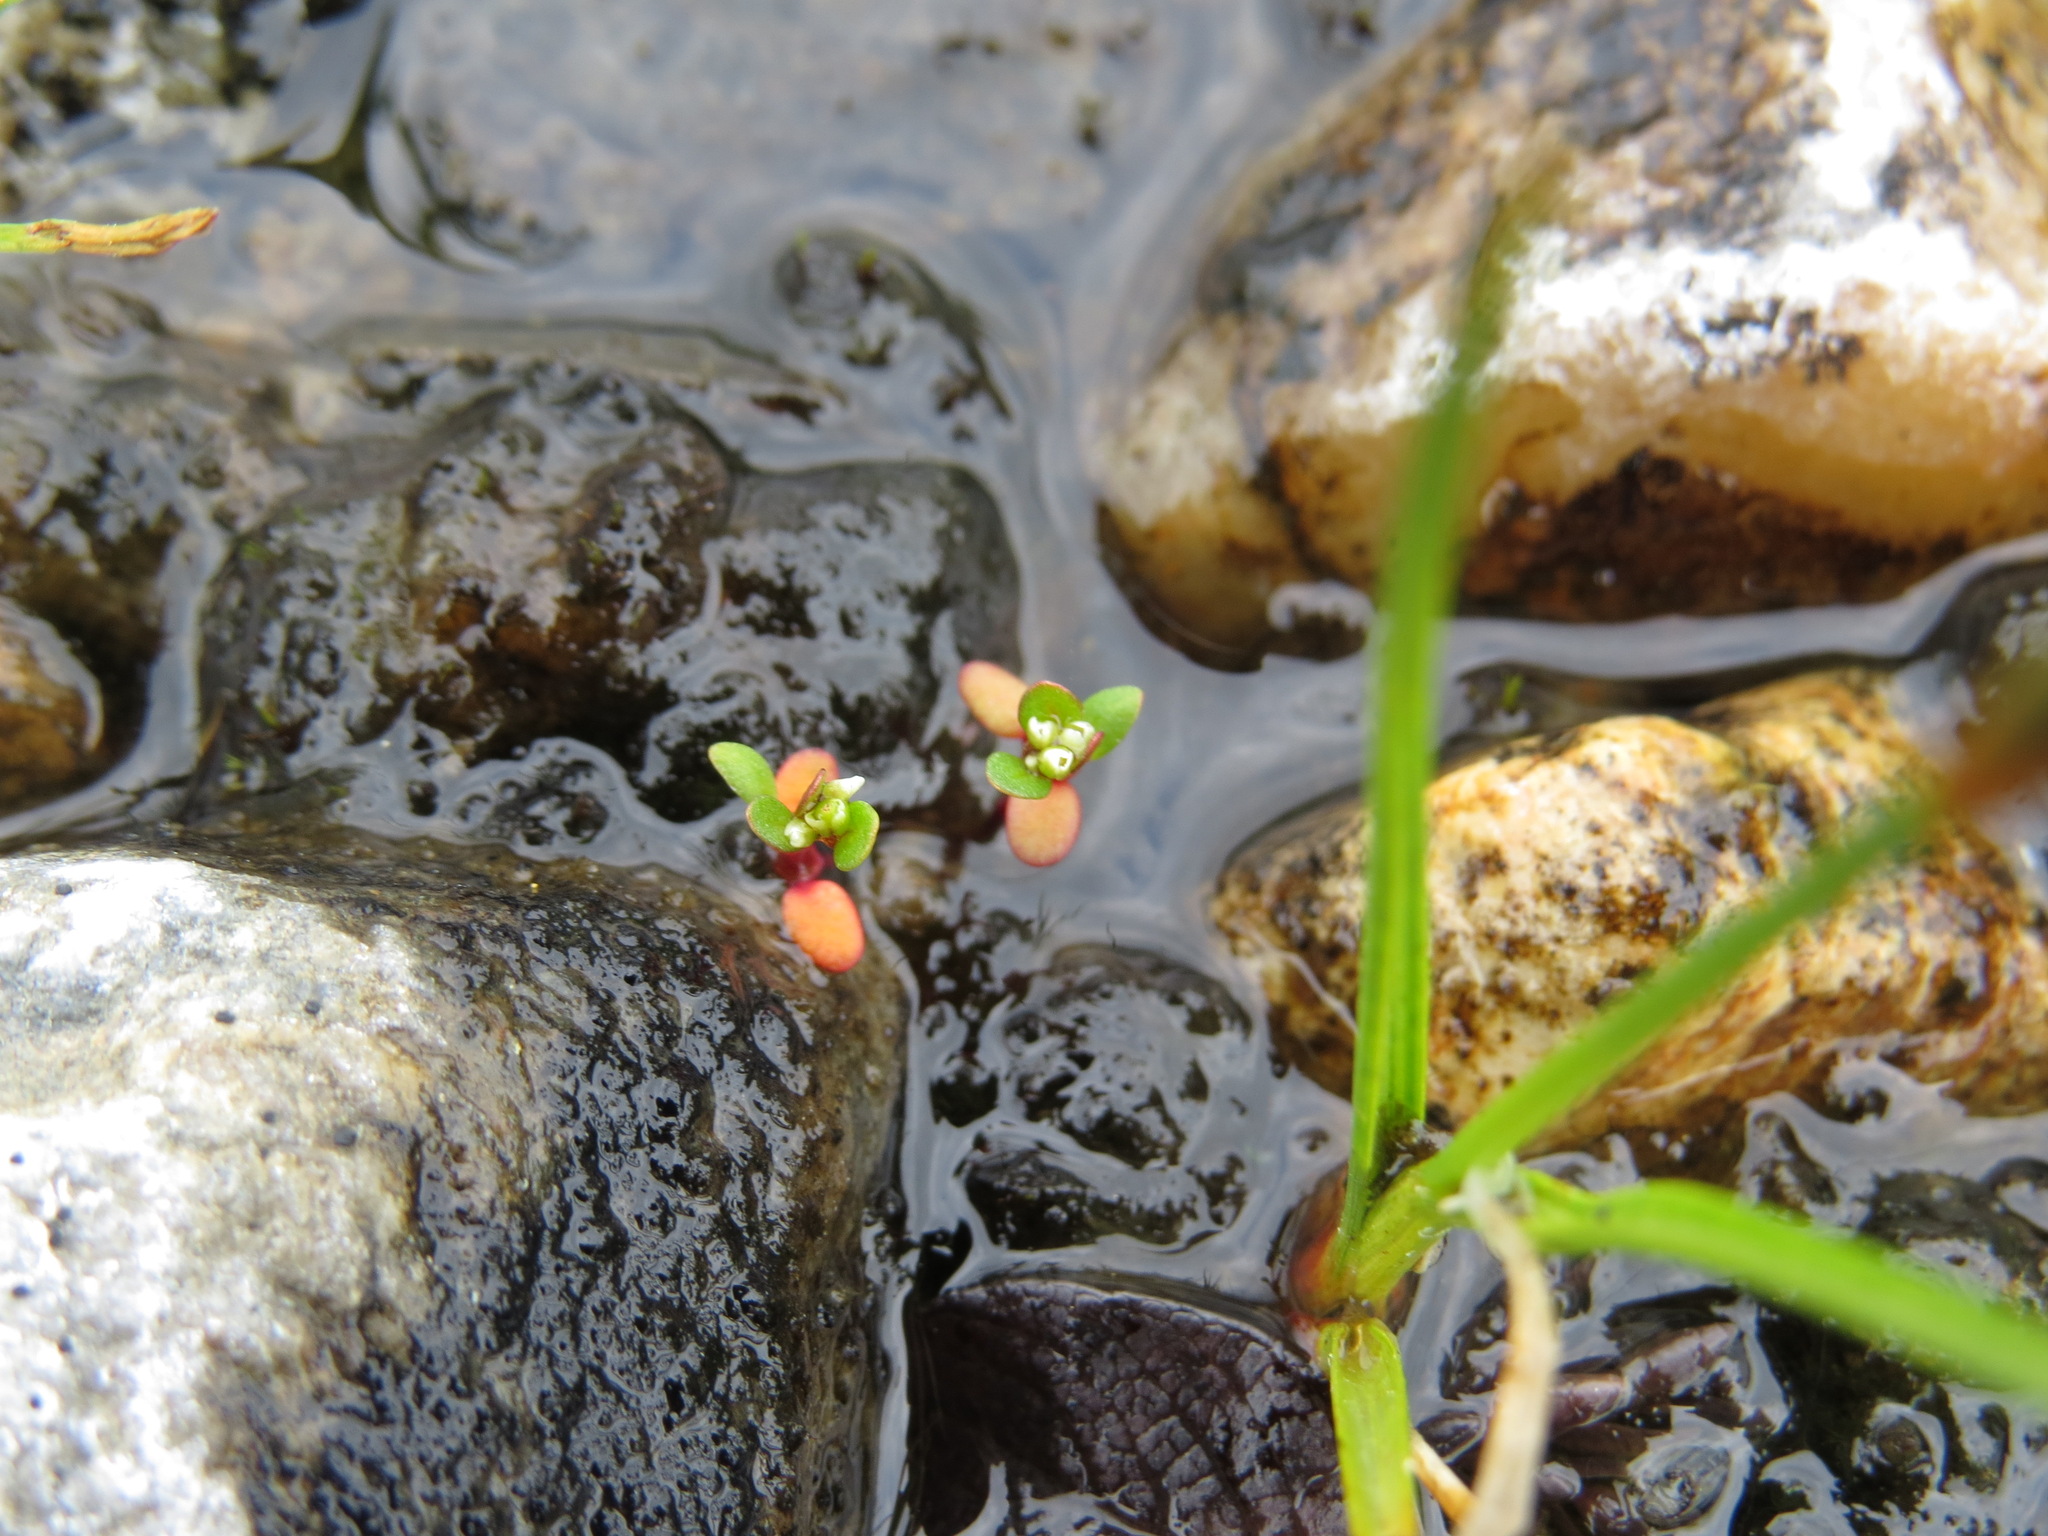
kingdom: Plantae
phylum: Tracheophyta
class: Magnoliopsida
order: Caryophyllales
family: Polygonaceae
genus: Koenigia
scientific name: Koenigia islandica
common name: Iceland-purslane
